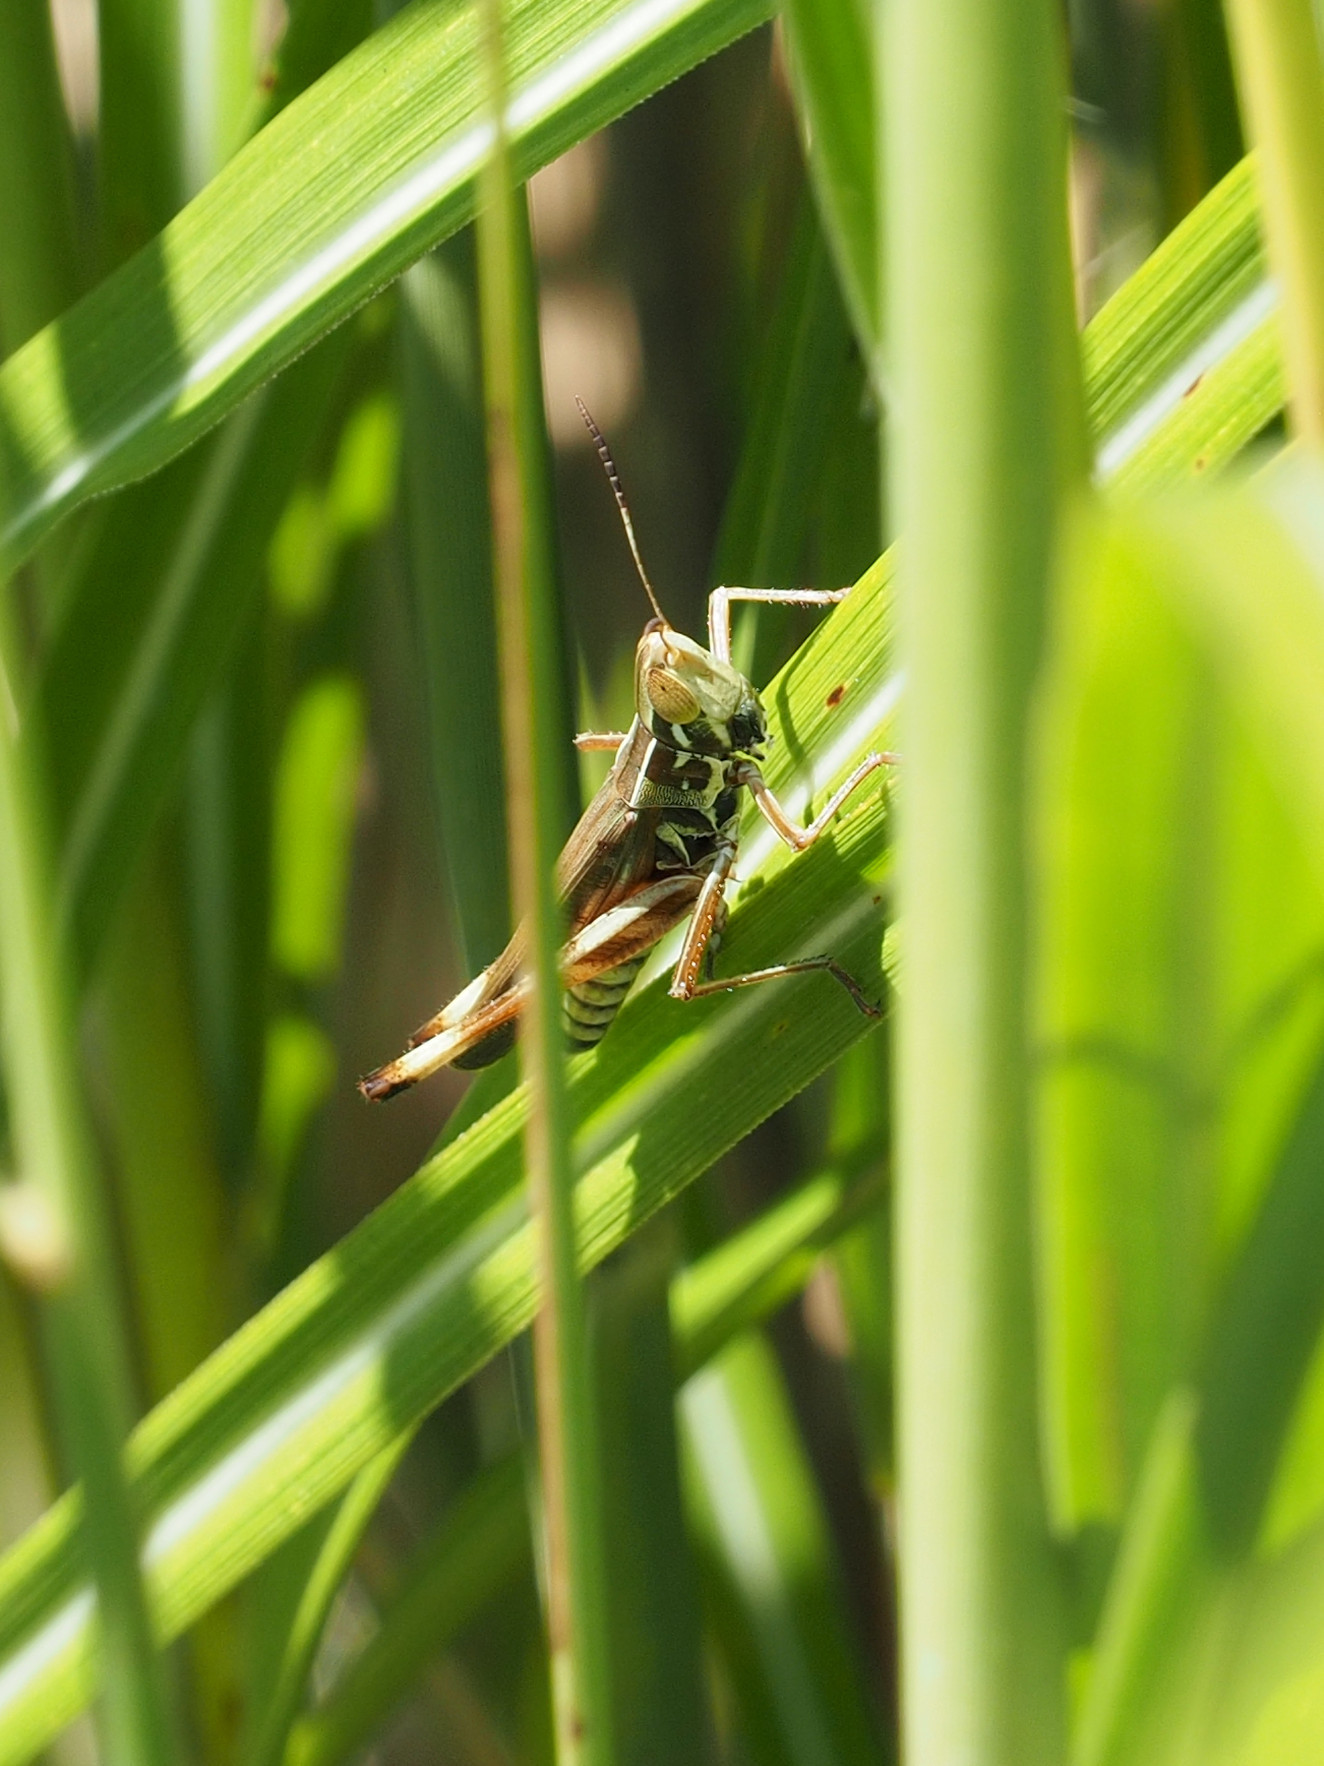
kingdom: Animalia
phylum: Arthropoda
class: Insecta
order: Orthoptera
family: Acrididae
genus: Syrbula
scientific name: Syrbula admirabilis
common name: Handsome grasshopper
